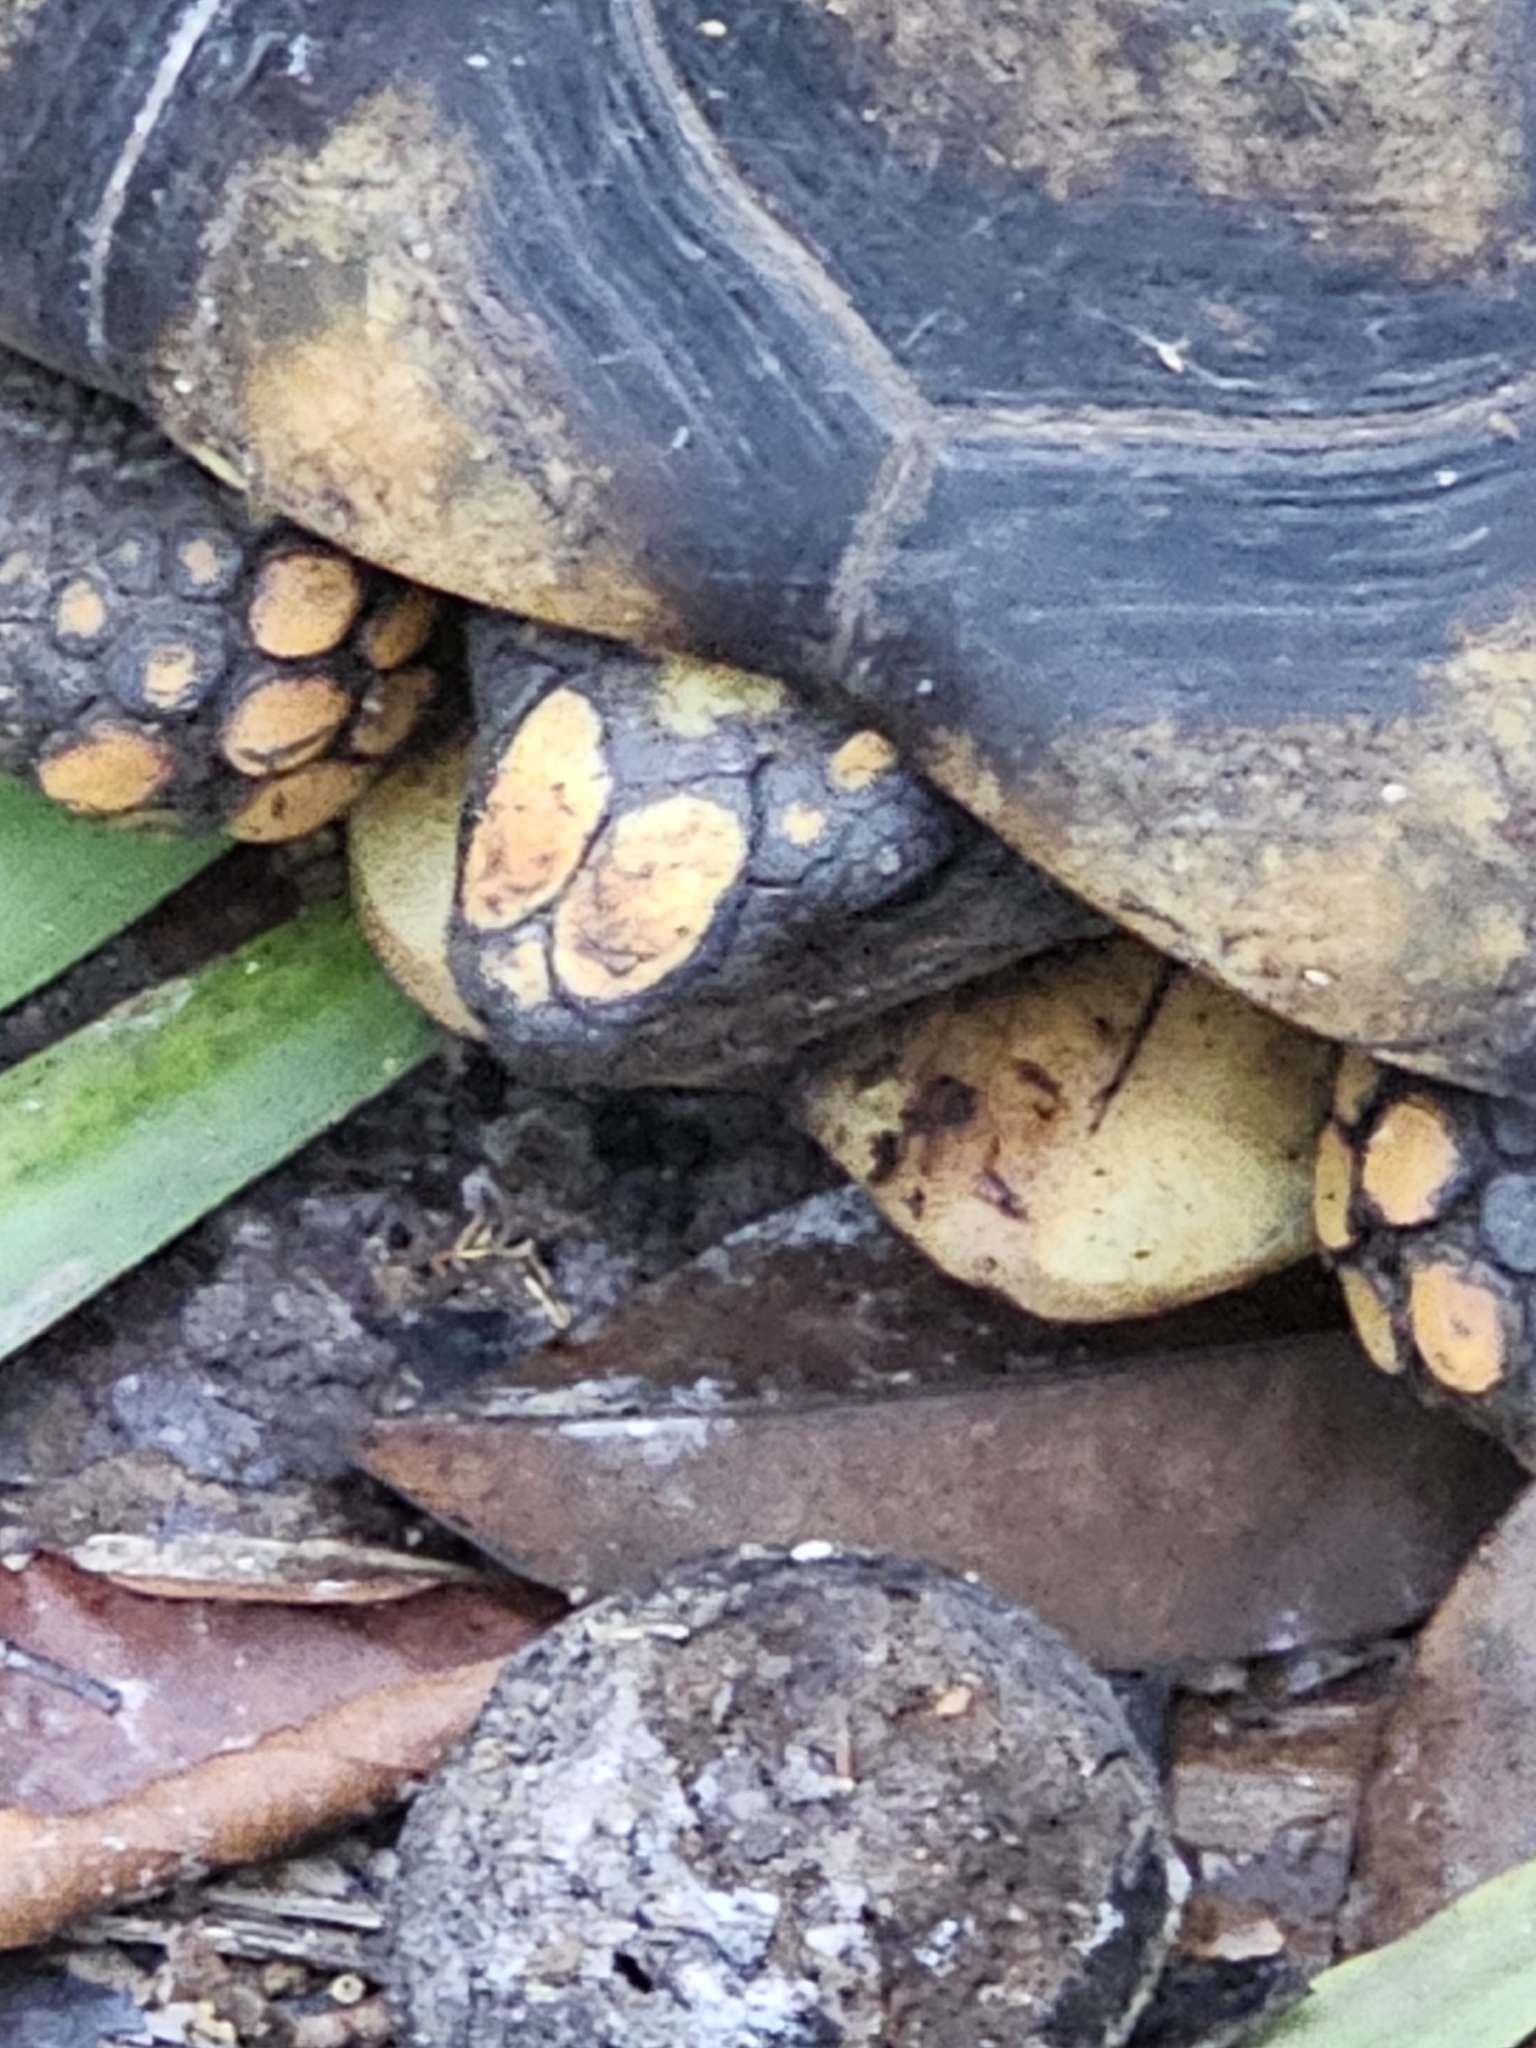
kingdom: Animalia
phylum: Chordata
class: Testudines
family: Testudinidae
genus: Chelonoidis
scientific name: Chelonoidis denticulatus
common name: Yellow-footed tortoise
